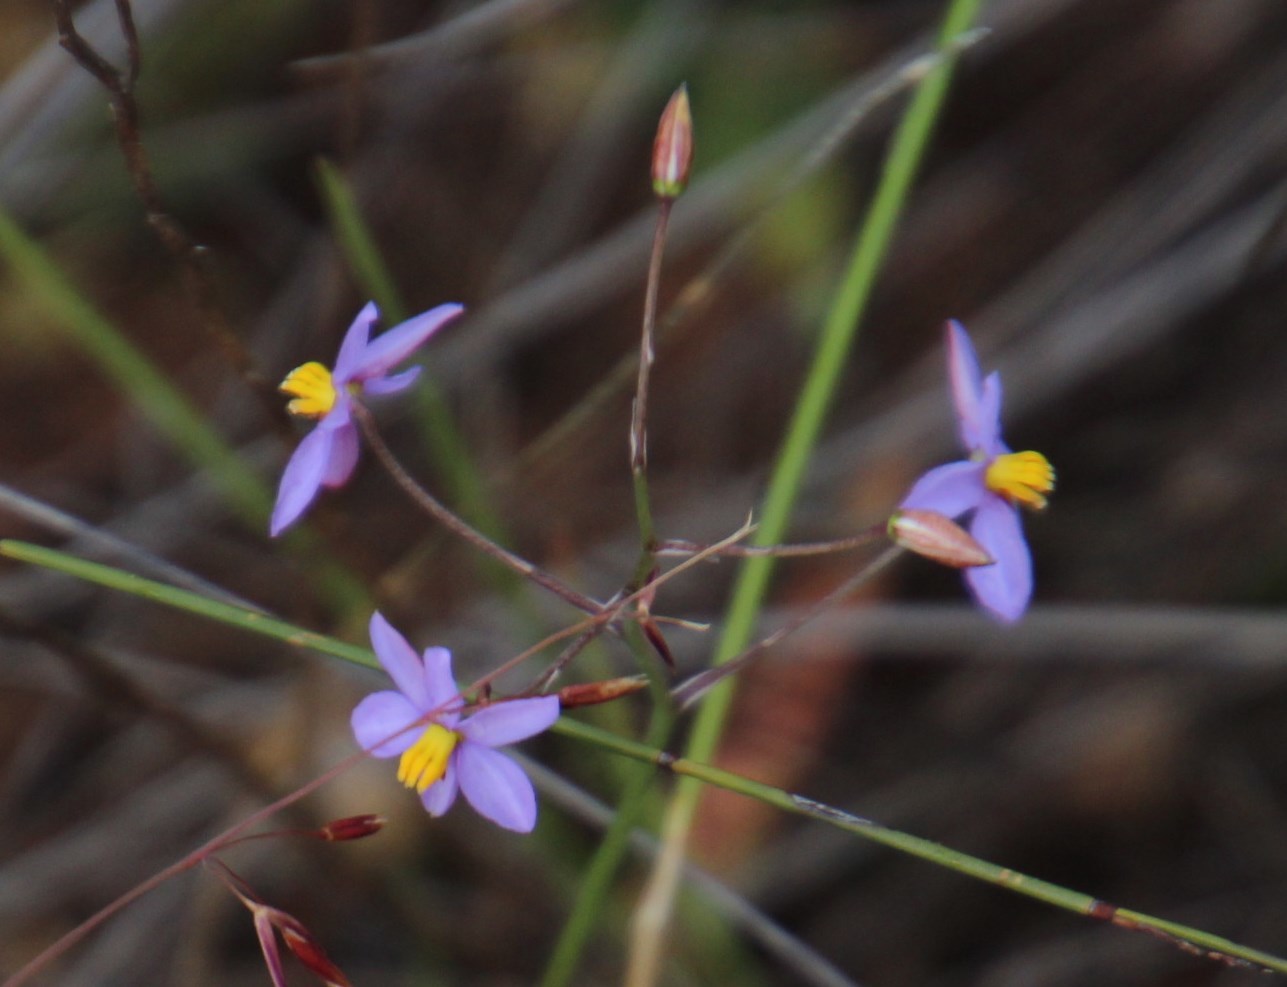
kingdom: Plantae
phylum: Tracheophyta
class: Liliopsida
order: Asparagales
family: Tecophilaeaceae
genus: Cyanella
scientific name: Cyanella hyacinthoides
